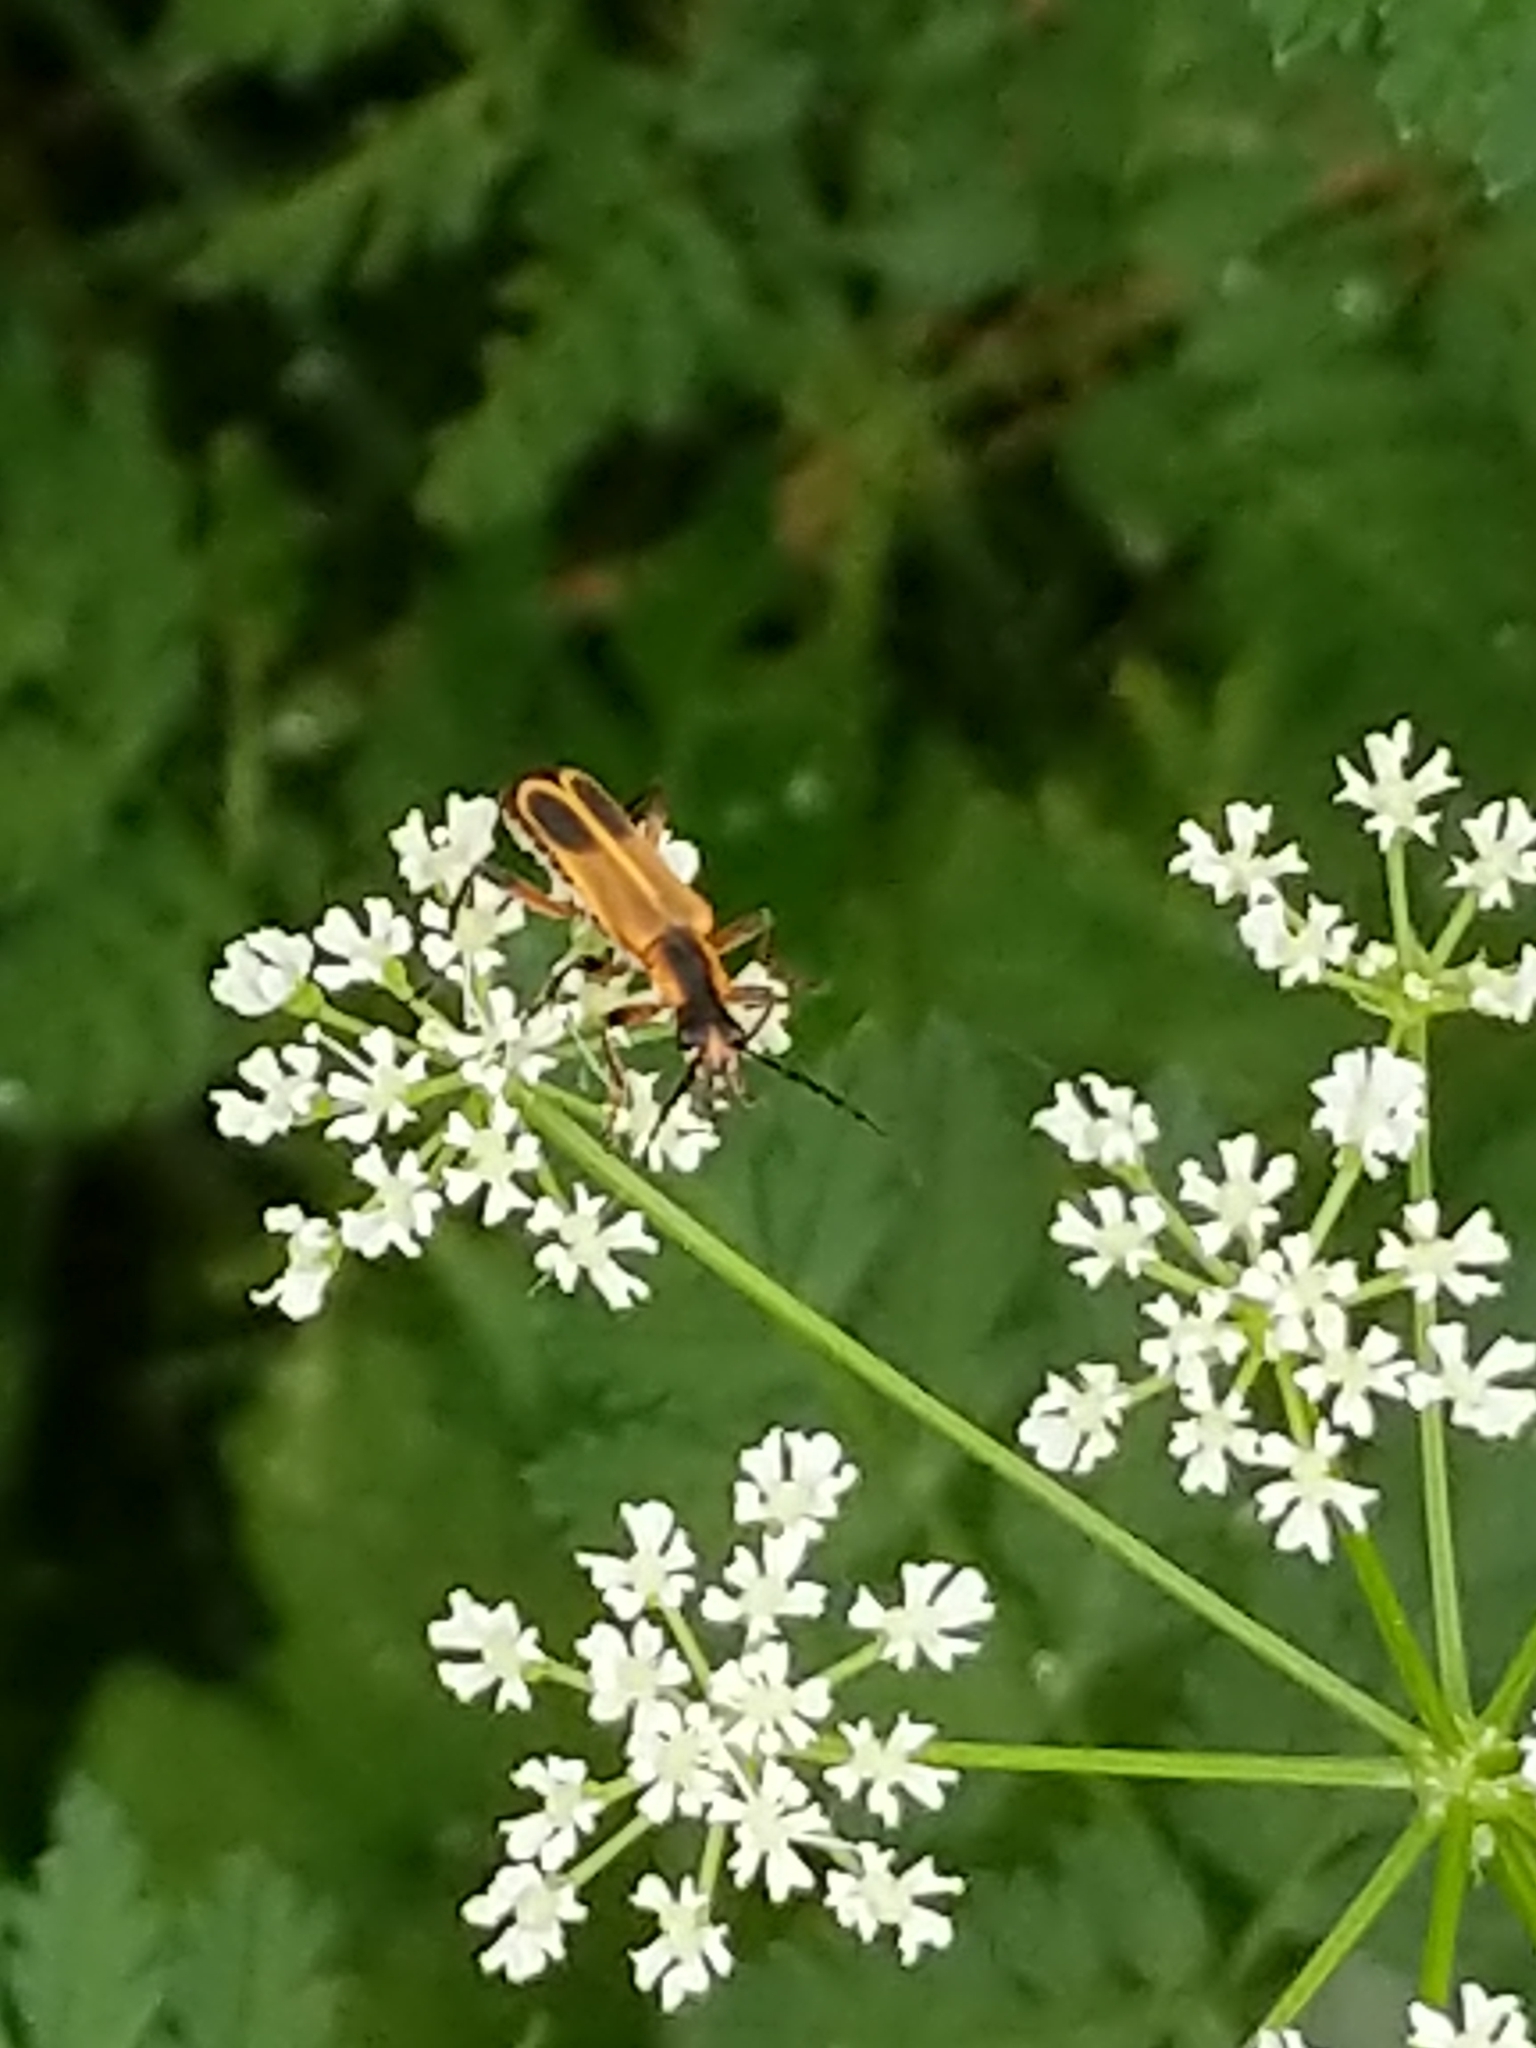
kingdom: Animalia
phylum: Arthropoda
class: Insecta
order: Coleoptera
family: Cantharidae
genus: Chauliognathus
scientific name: Chauliognathus marginatus
